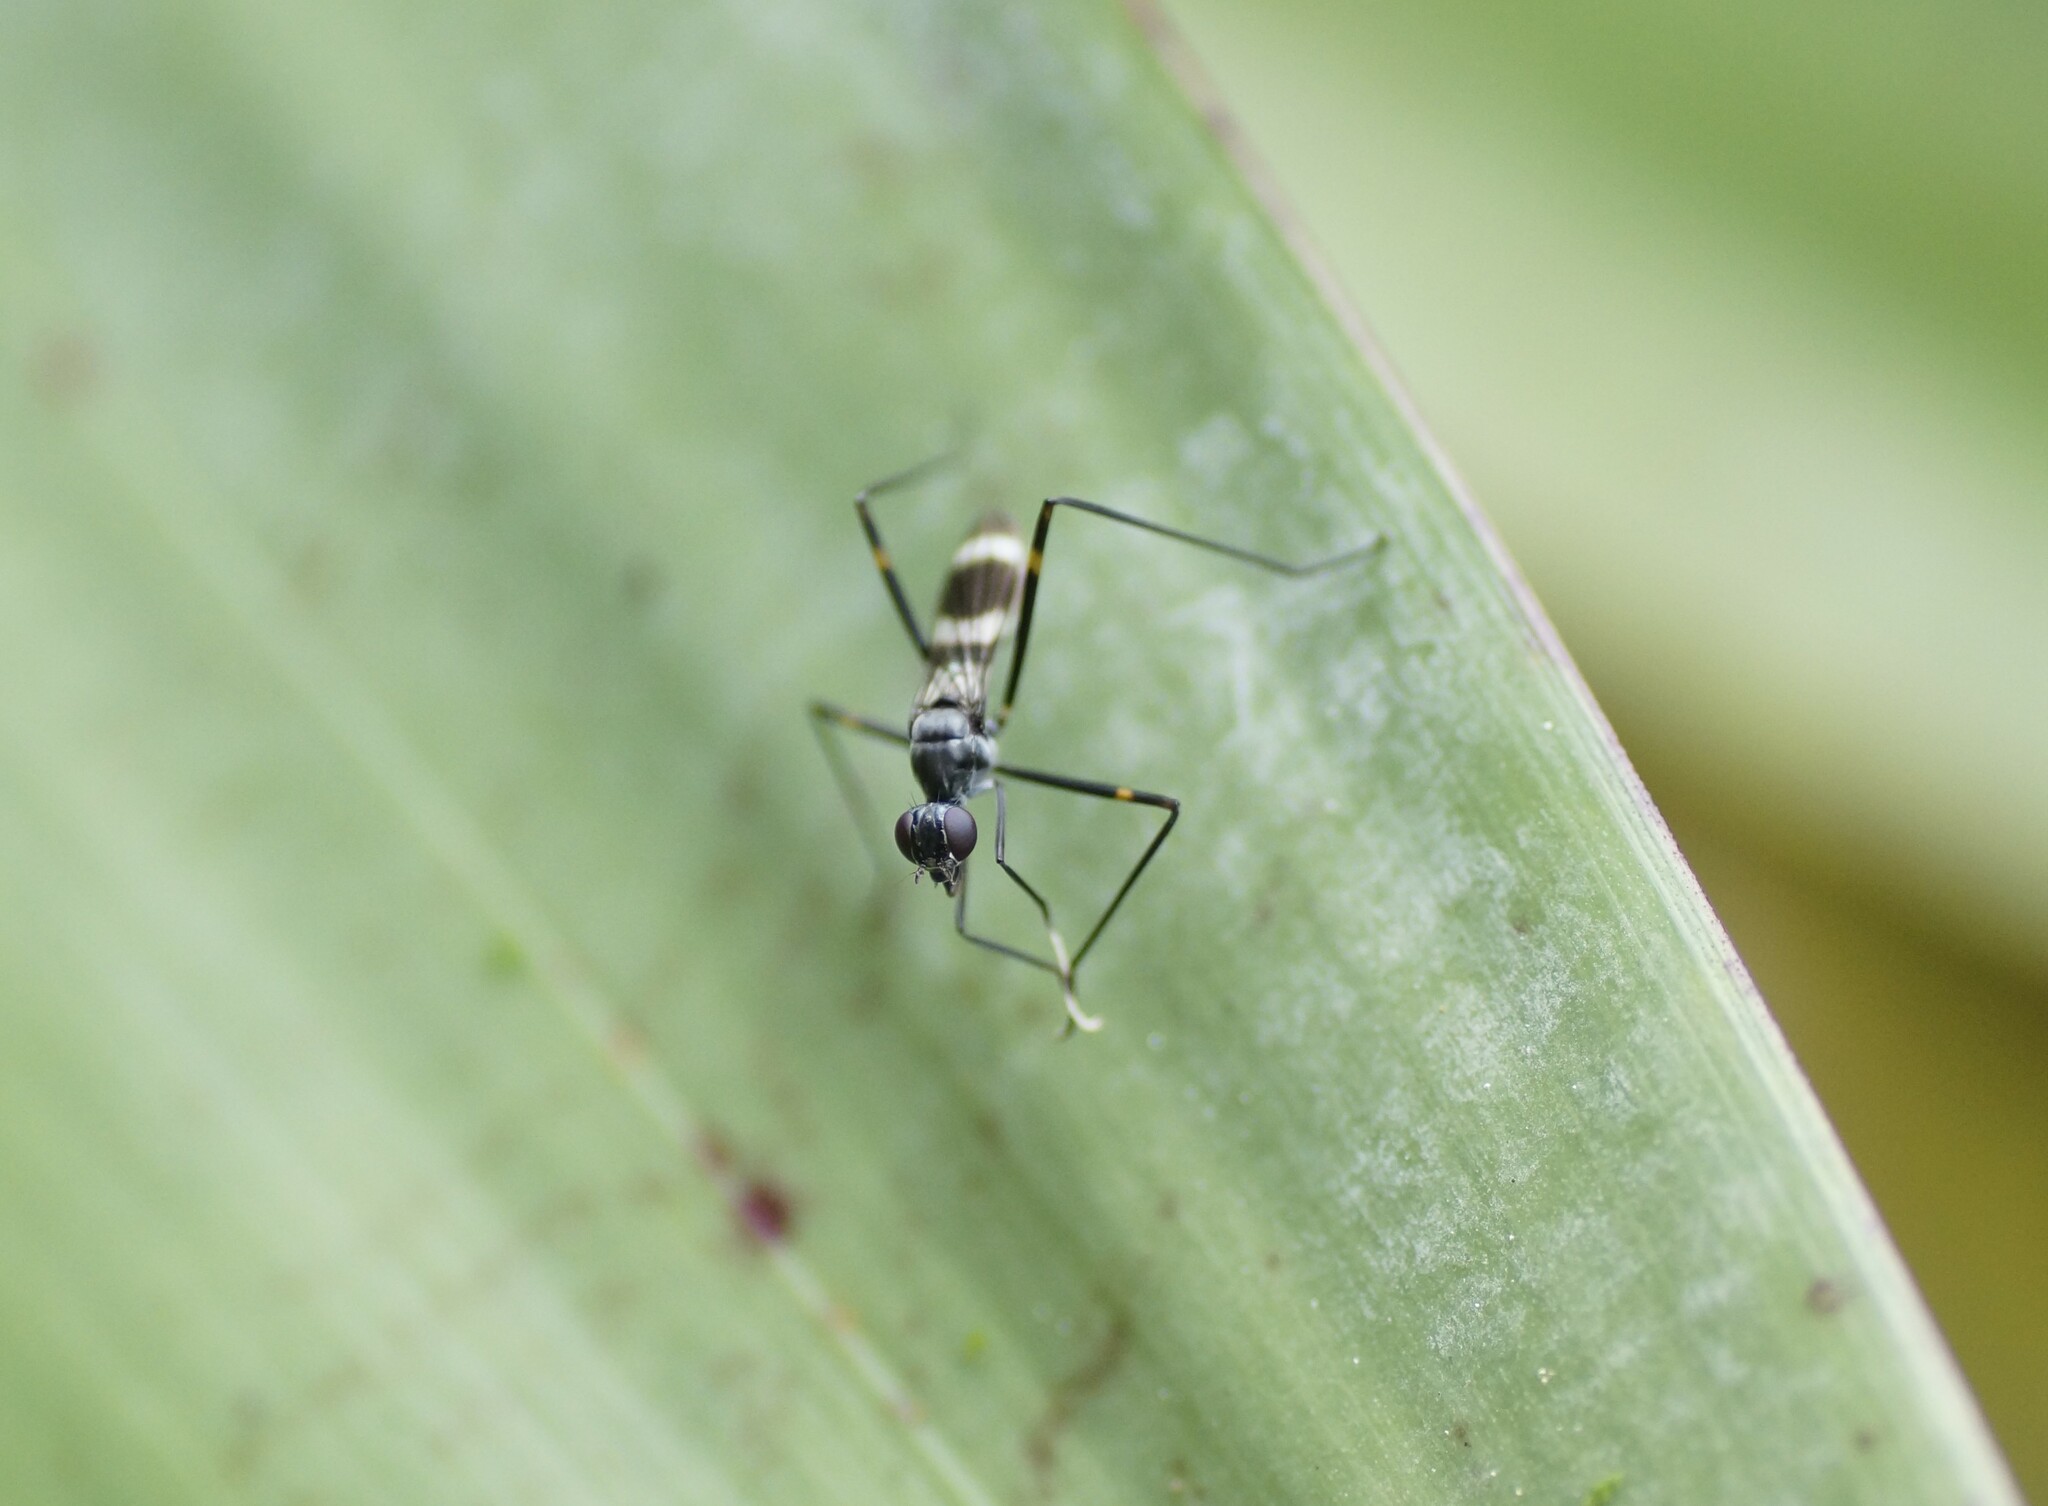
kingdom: Animalia
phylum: Arthropoda
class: Insecta
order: Diptera
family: Micropezidae
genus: Mimegralla
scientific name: Mimegralla australica
